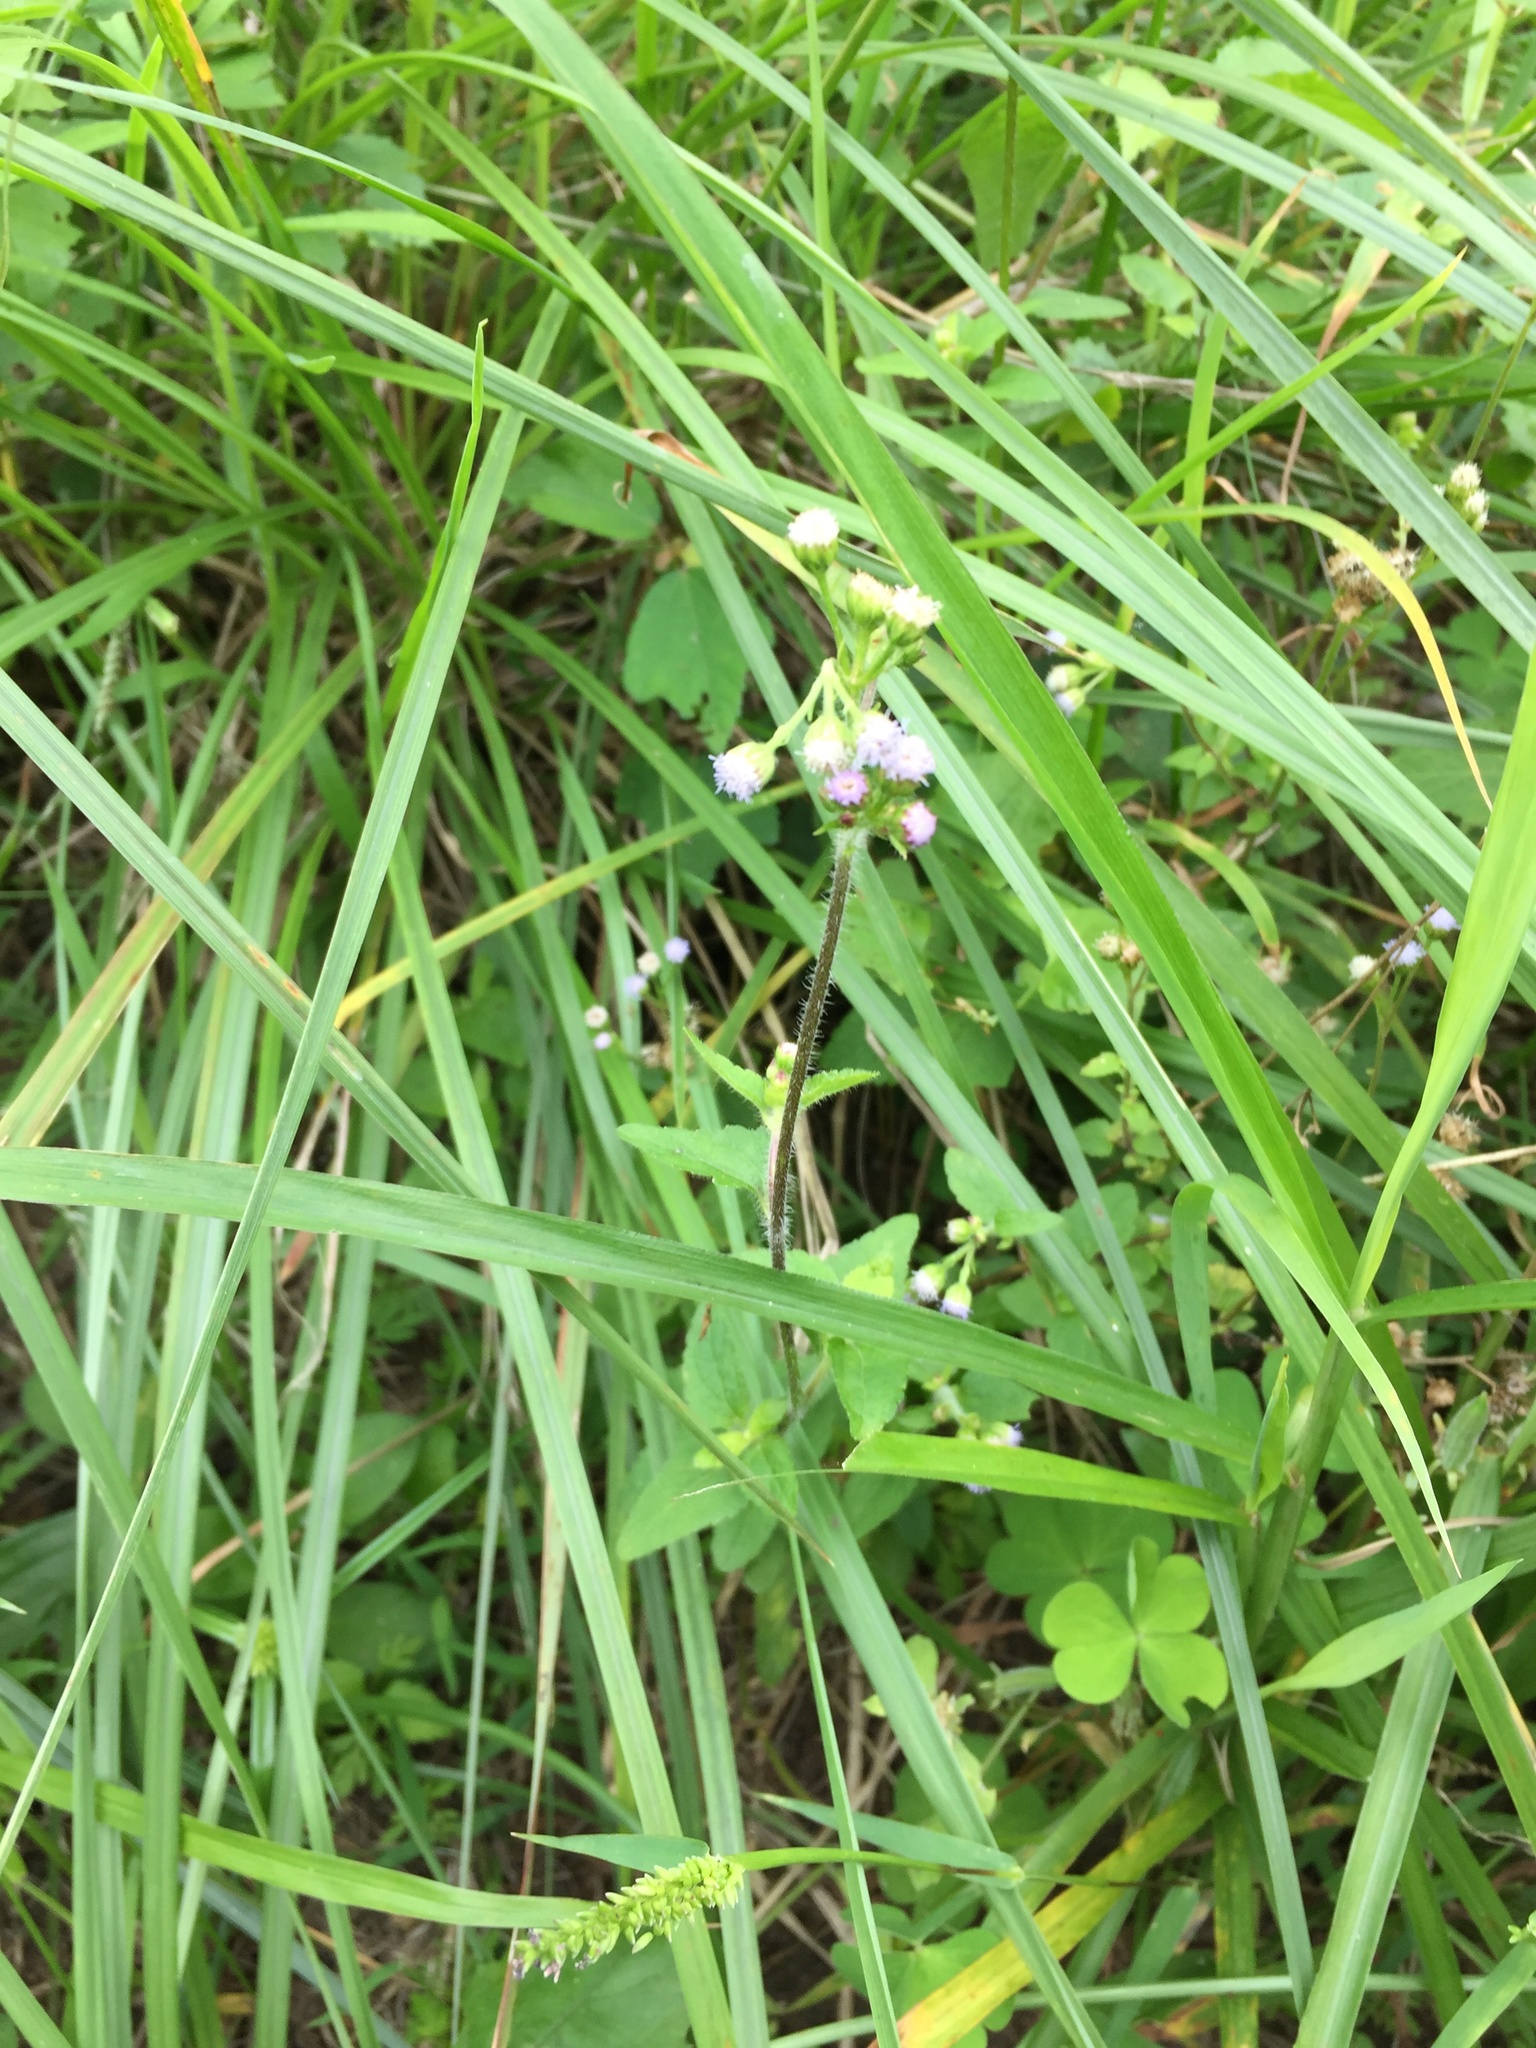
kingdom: Plantae
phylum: Tracheophyta
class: Magnoliopsida
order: Asterales
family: Asteraceae
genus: Ageratum
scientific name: Ageratum conyzoides
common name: Tropical whiteweed
